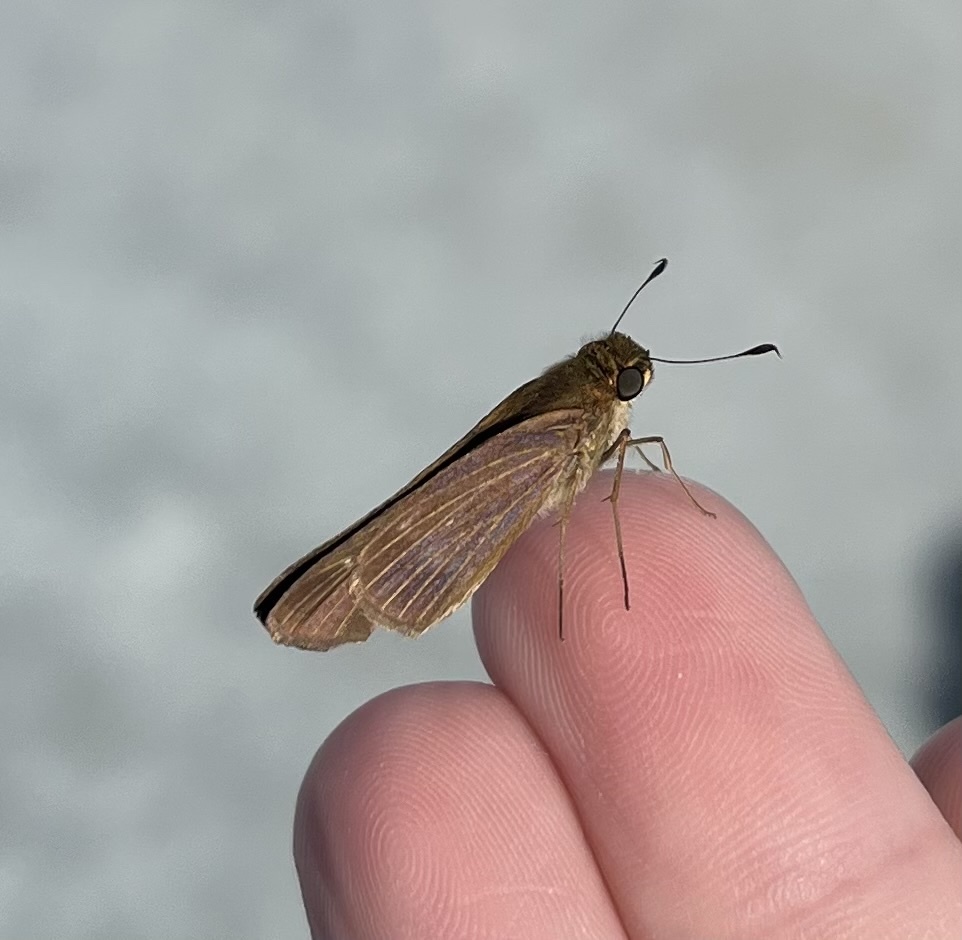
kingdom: Animalia
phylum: Arthropoda
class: Insecta
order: Lepidoptera
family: Hesperiidae
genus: Panoquina
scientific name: Panoquina ocola
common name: Ocola skipper
